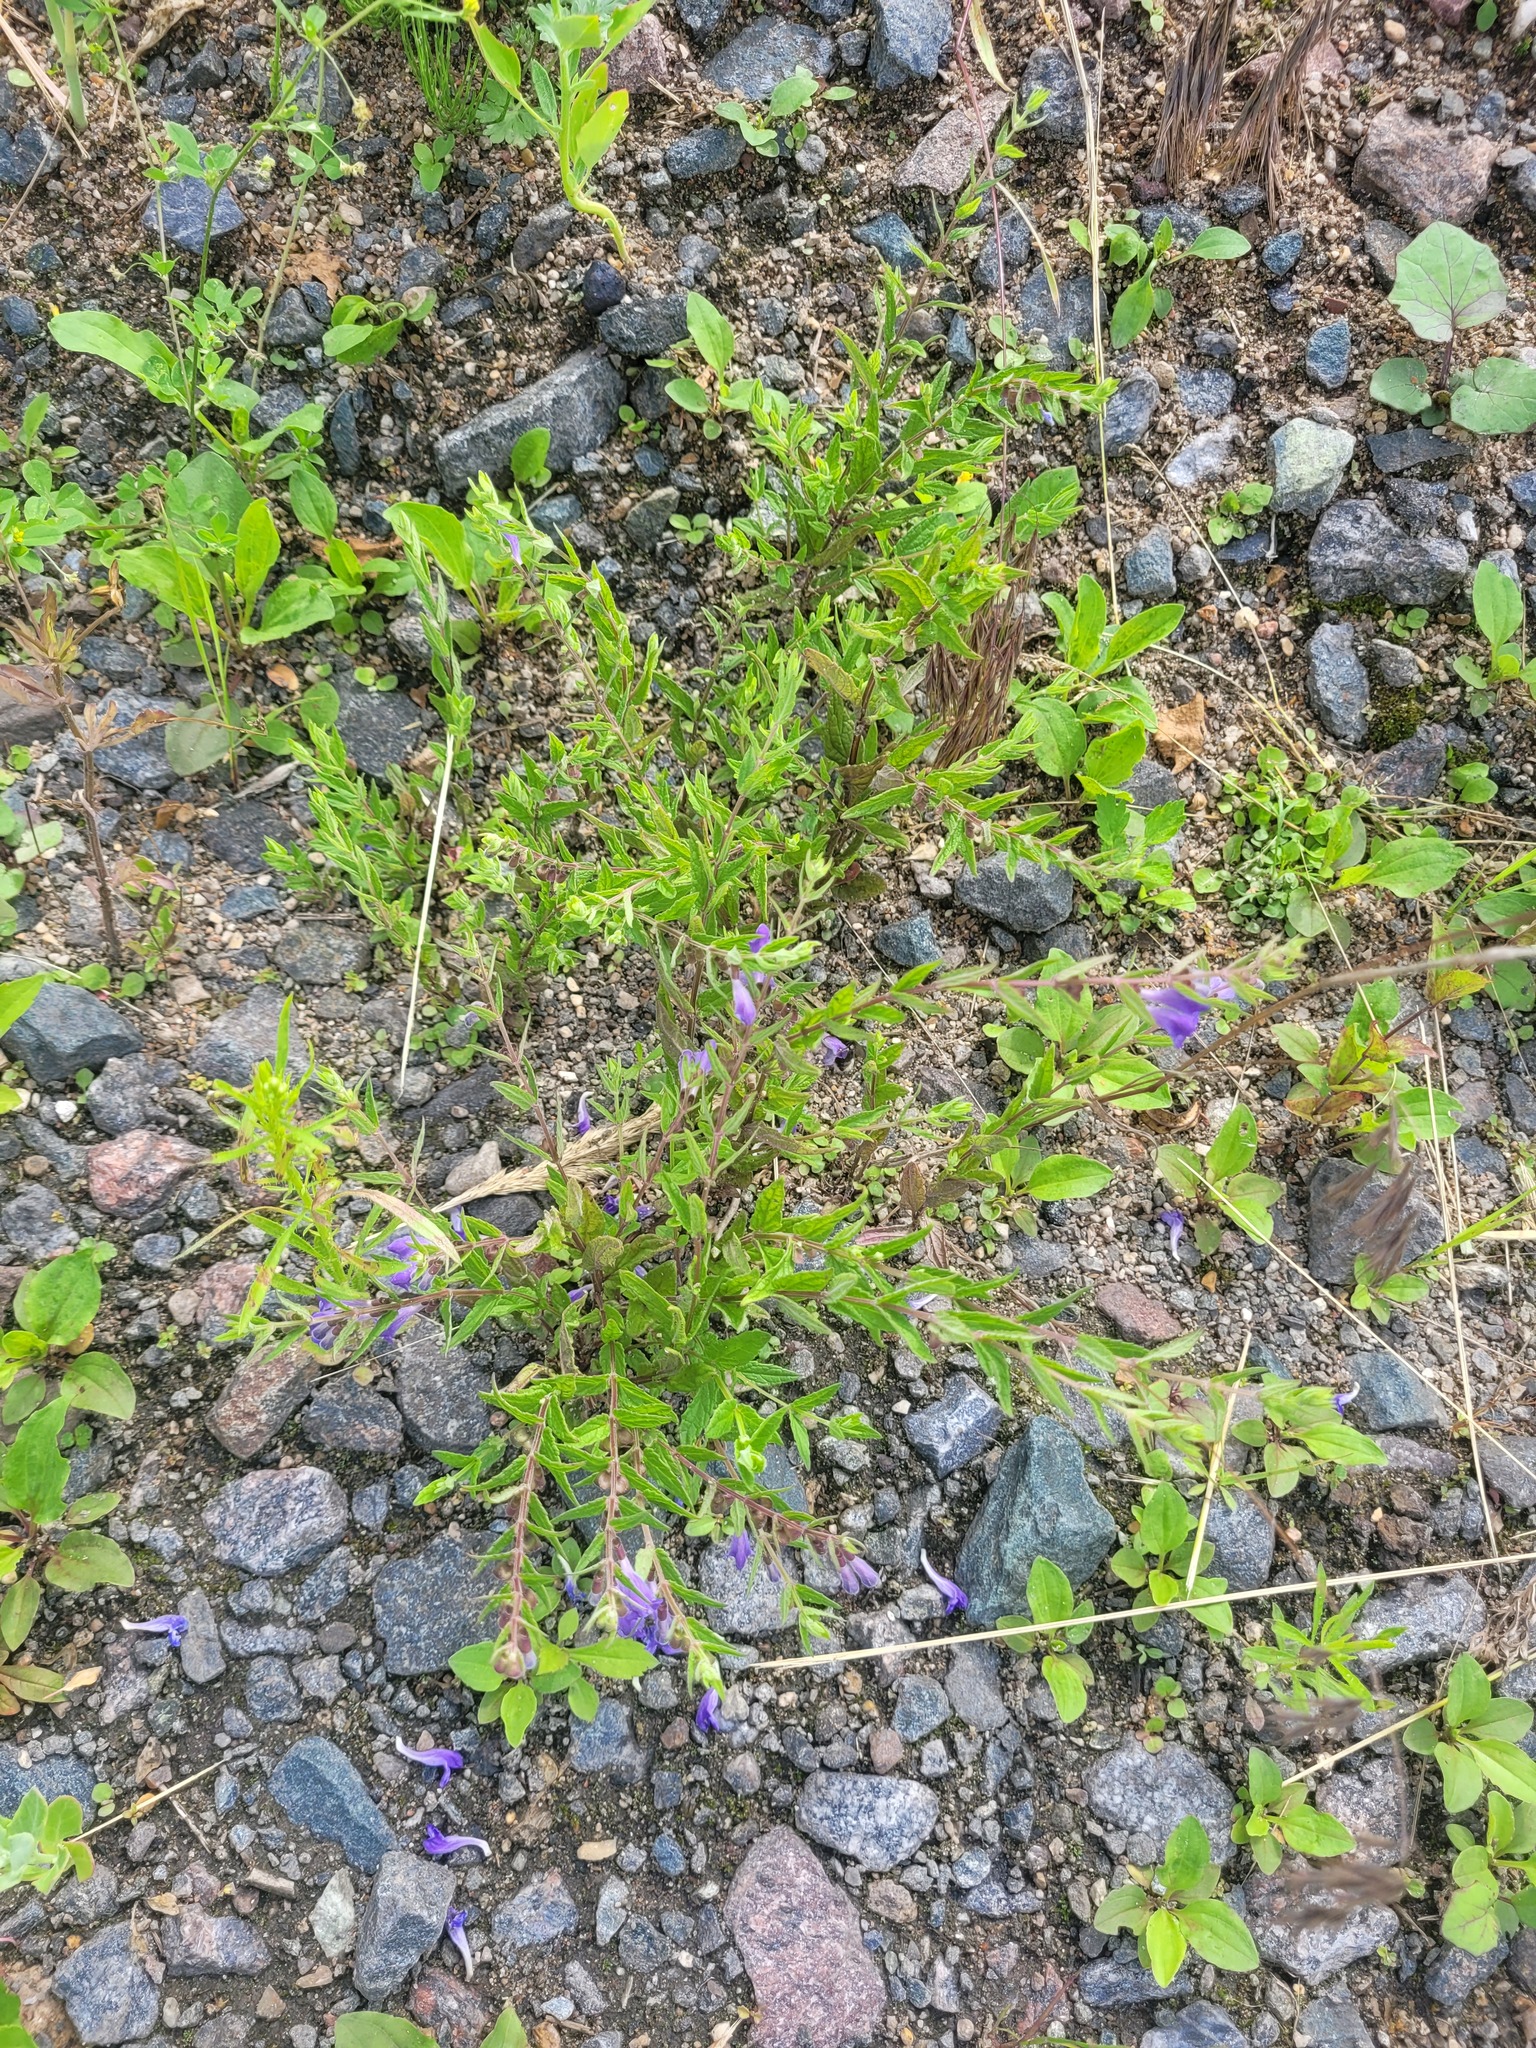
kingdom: Plantae
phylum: Tracheophyta
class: Magnoliopsida
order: Lamiales
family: Lamiaceae
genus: Scutellaria
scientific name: Scutellaria galericulata
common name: Skullcap
